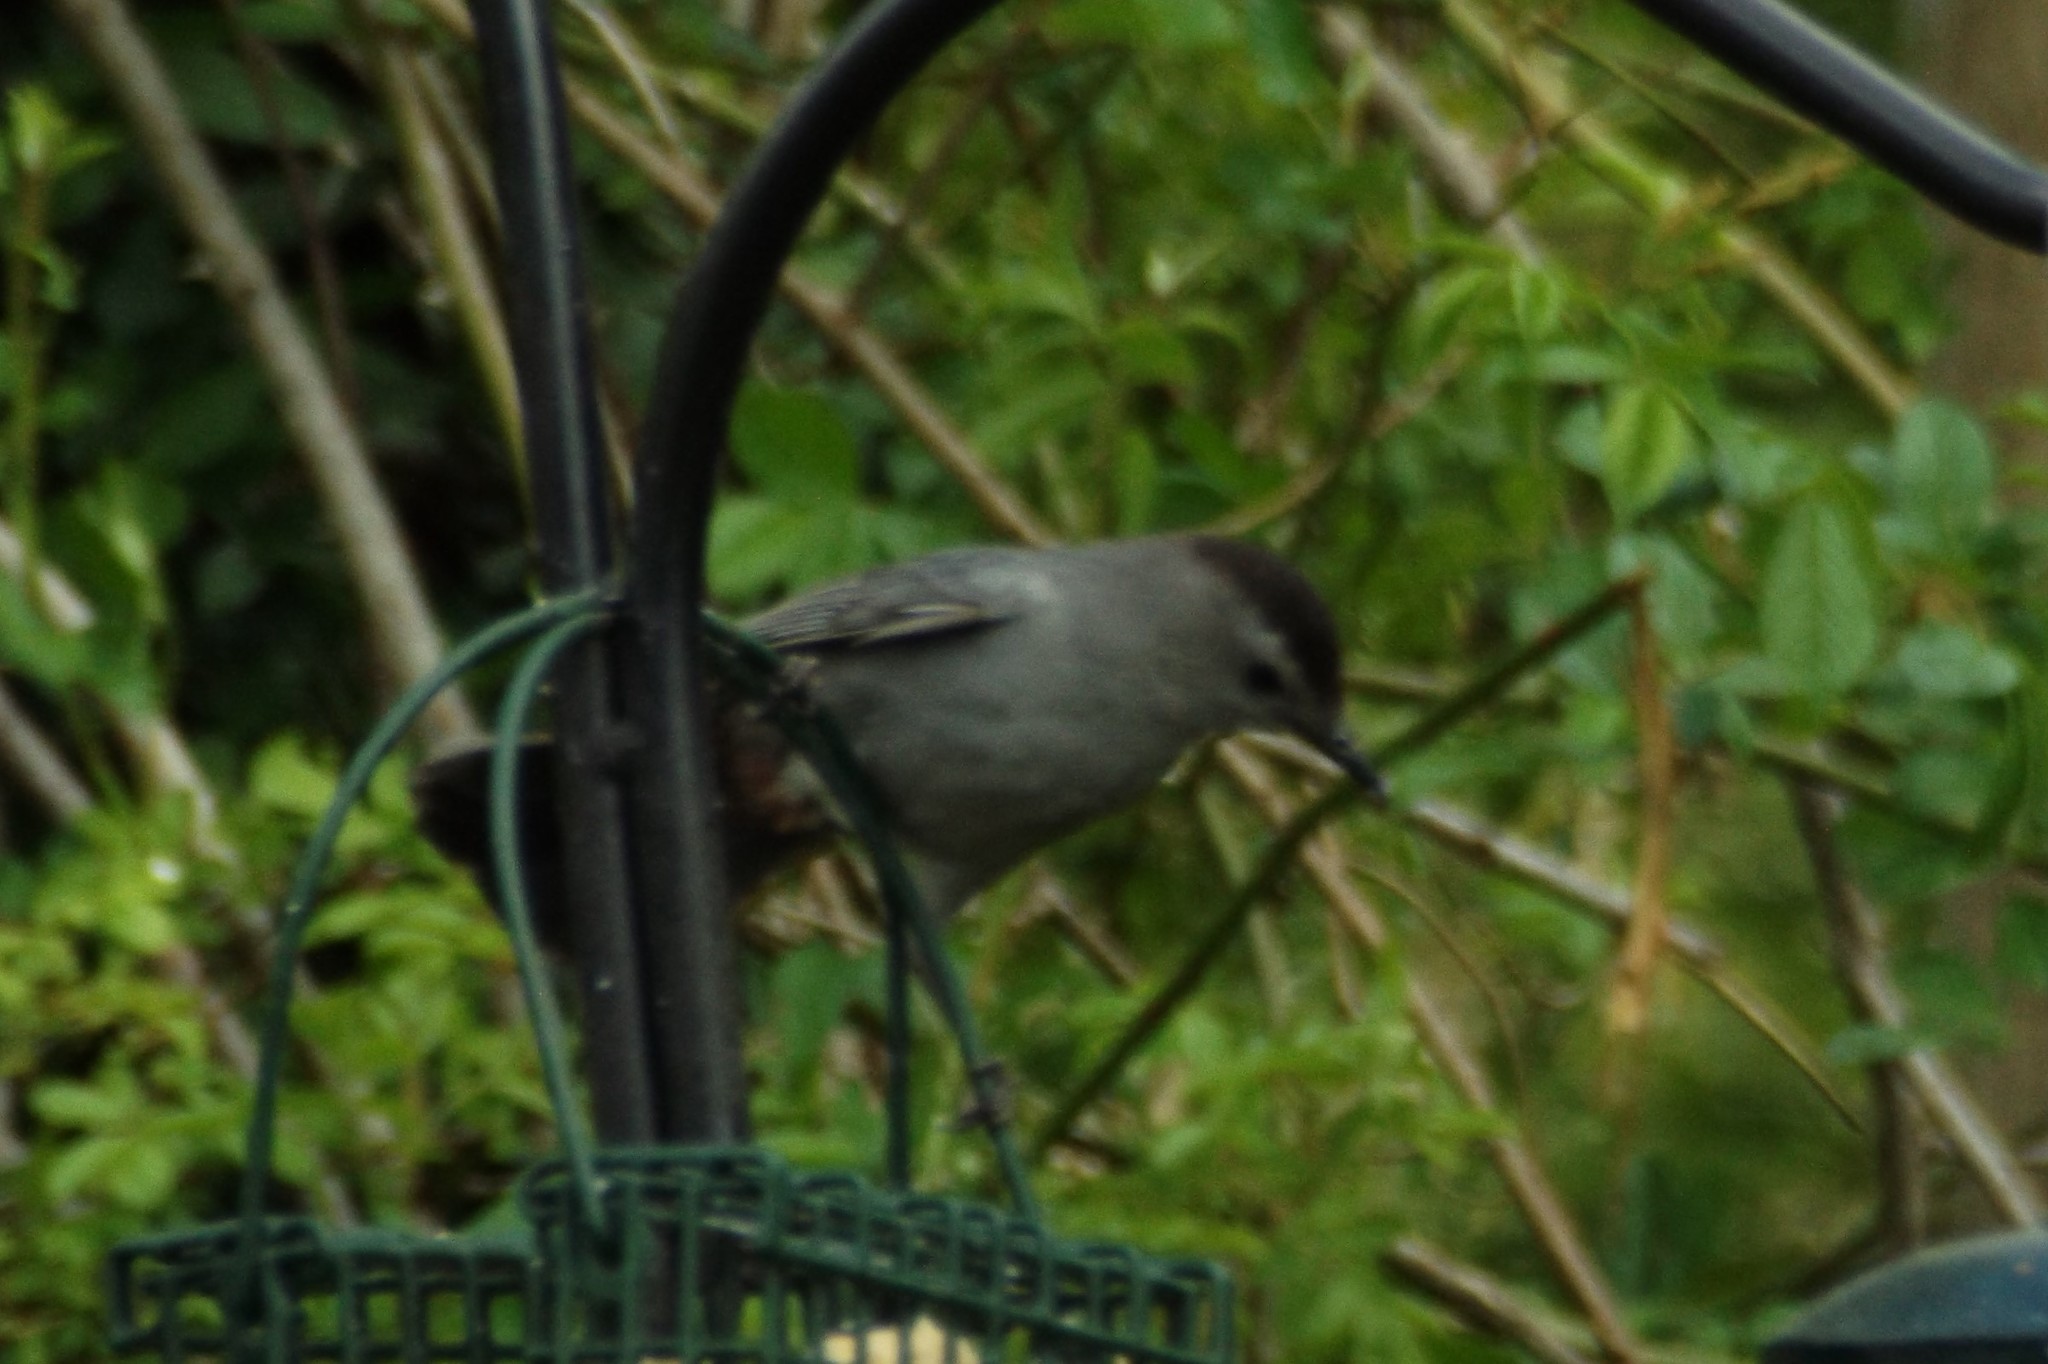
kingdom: Animalia
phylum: Chordata
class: Aves
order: Passeriformes
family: Mimidae
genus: Dumetella
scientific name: Dumetella carolinensis
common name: Gray catbird
